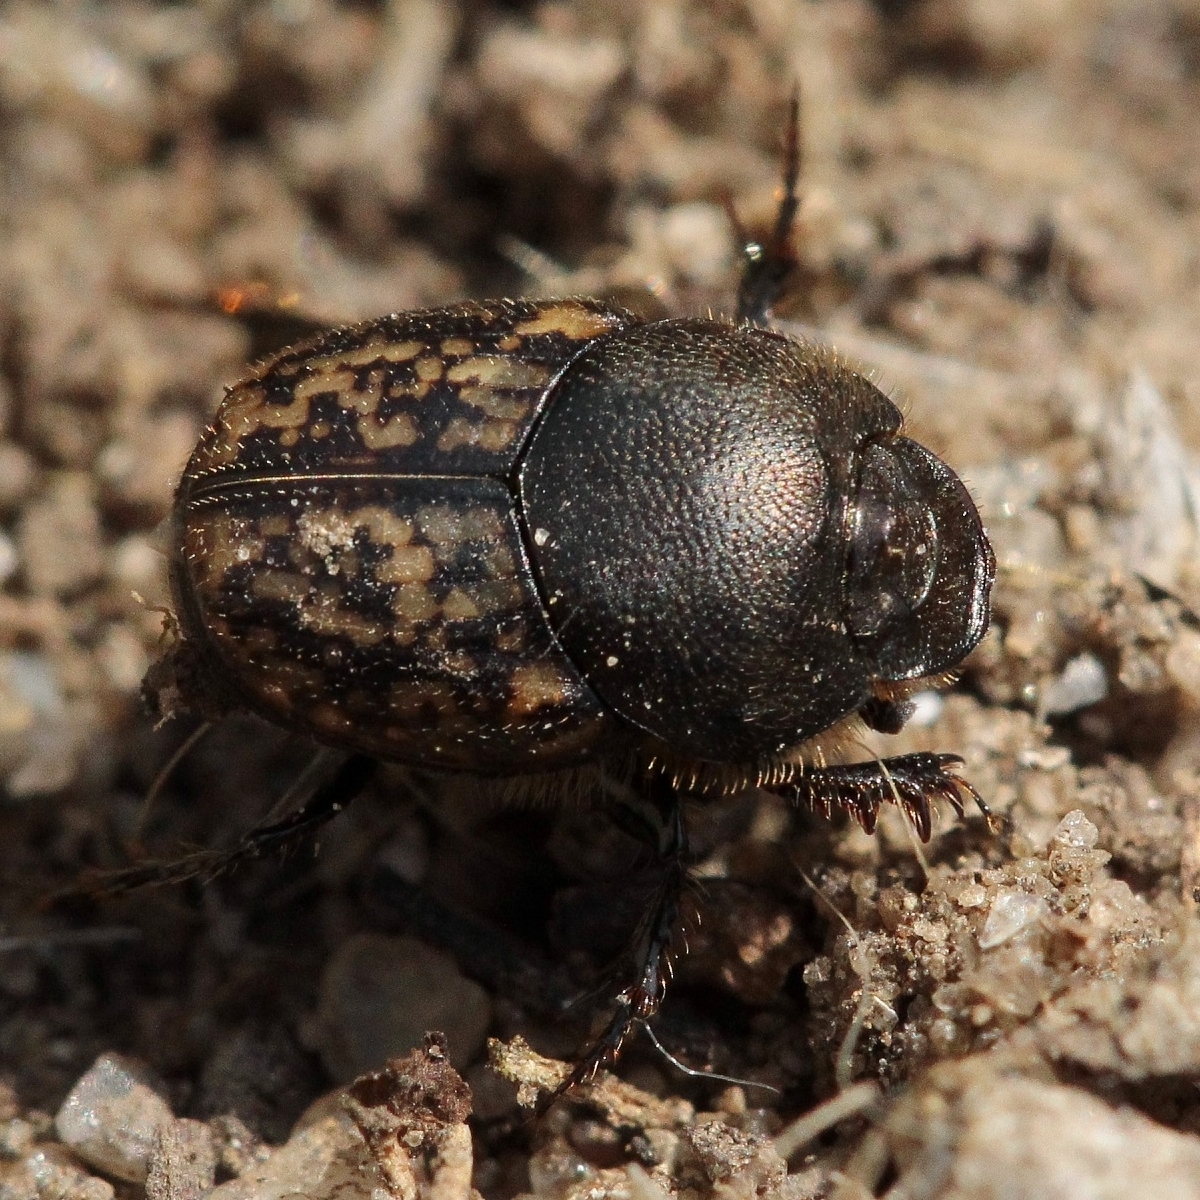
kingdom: Animalia
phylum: Arthropoda
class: Insecta
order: Coleoptera
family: Scarabaeidae
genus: Onthophagus
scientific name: Onthophagus nuchicornis
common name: Mottled dung beetle
